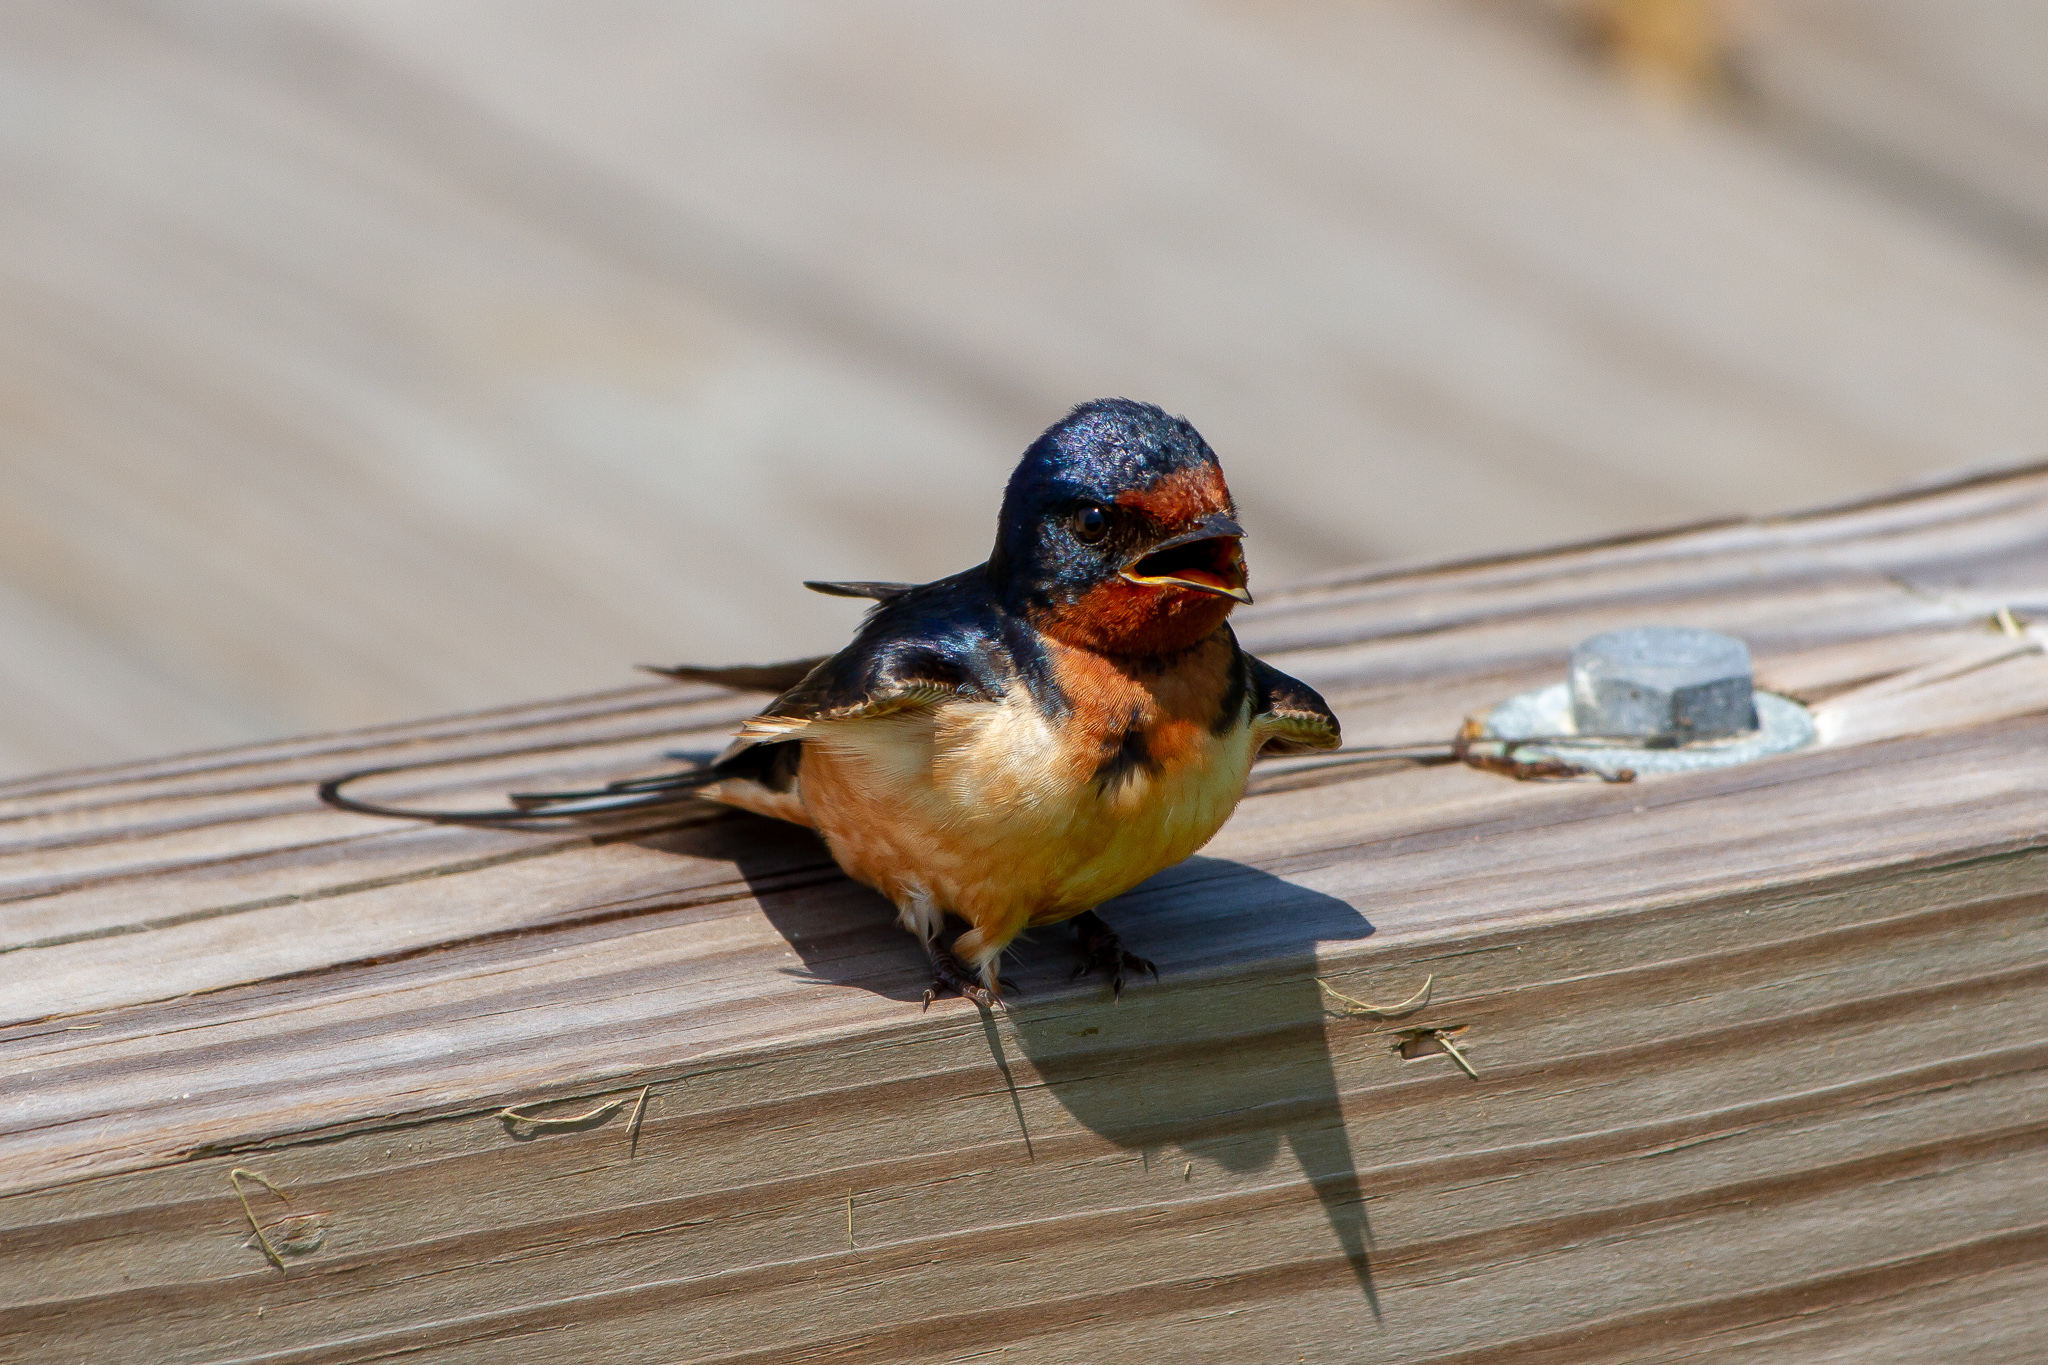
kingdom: Animalia
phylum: Chordata
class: Aves
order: Passeriformes
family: Hirundinidae
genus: Hirundo
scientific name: Hirundo rustica
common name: Barn swallow
